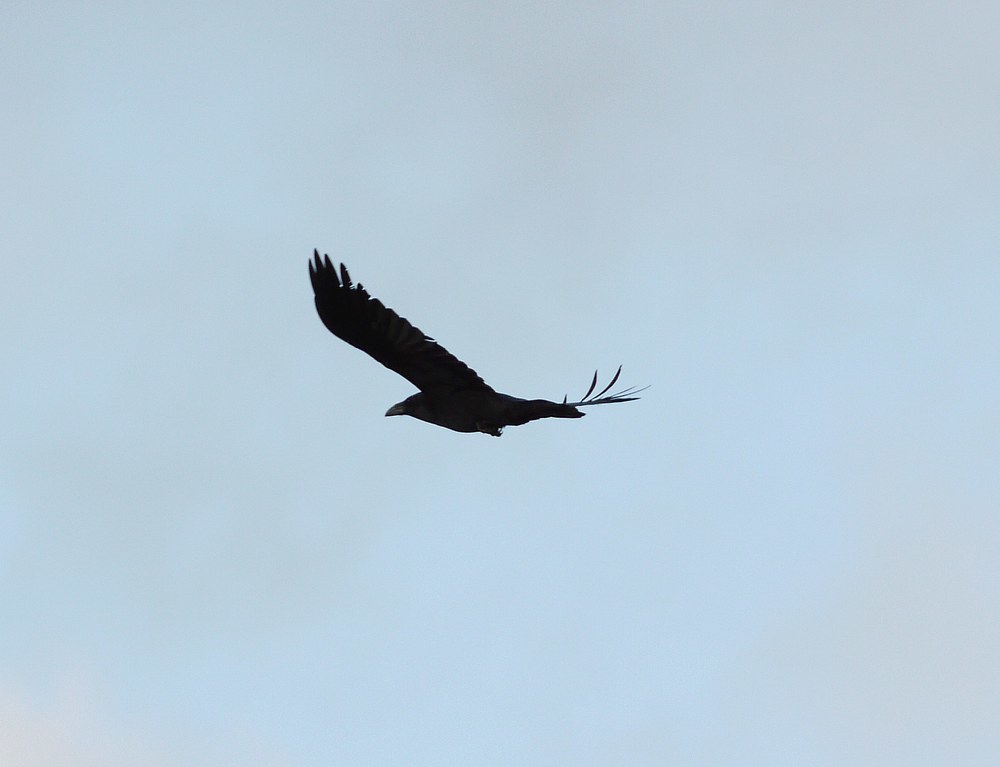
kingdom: Animalia
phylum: Chordata
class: Aves
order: Passeriformes
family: Corvidae
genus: Corvus
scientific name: Corvus corax
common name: Common raven
